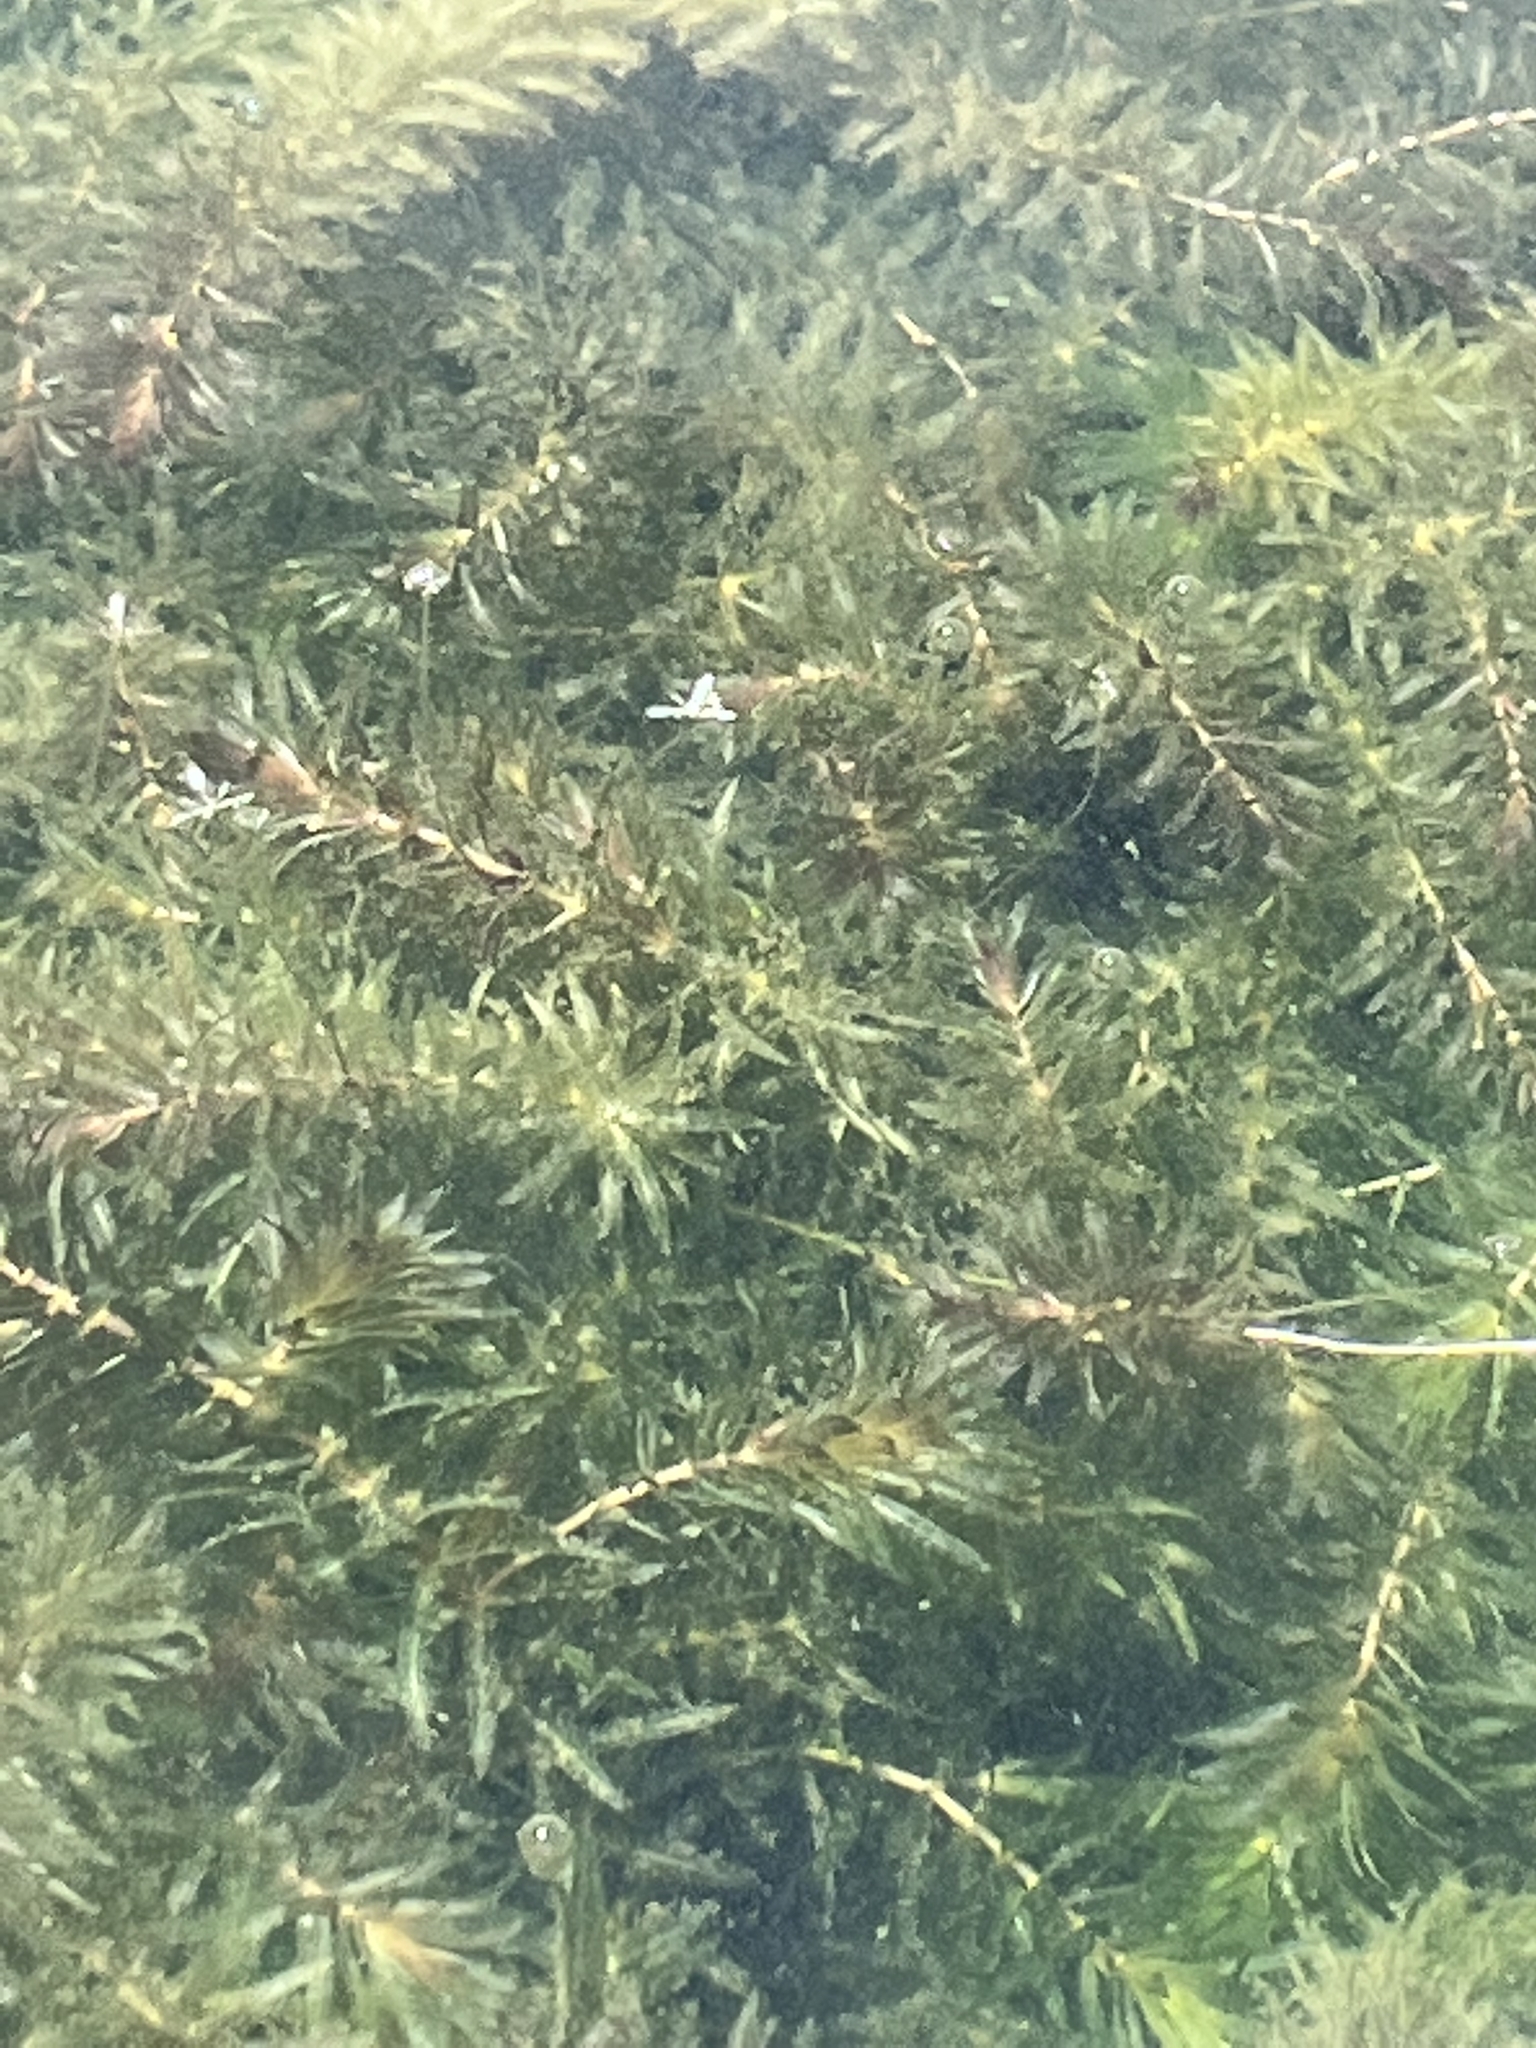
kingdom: Plantae
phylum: Tracheophyta
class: Liliopsida
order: Alismatales
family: Hydrocharitaceae
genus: Hydrilla
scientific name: Hydrilla verticillata
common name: Florida-elodea
